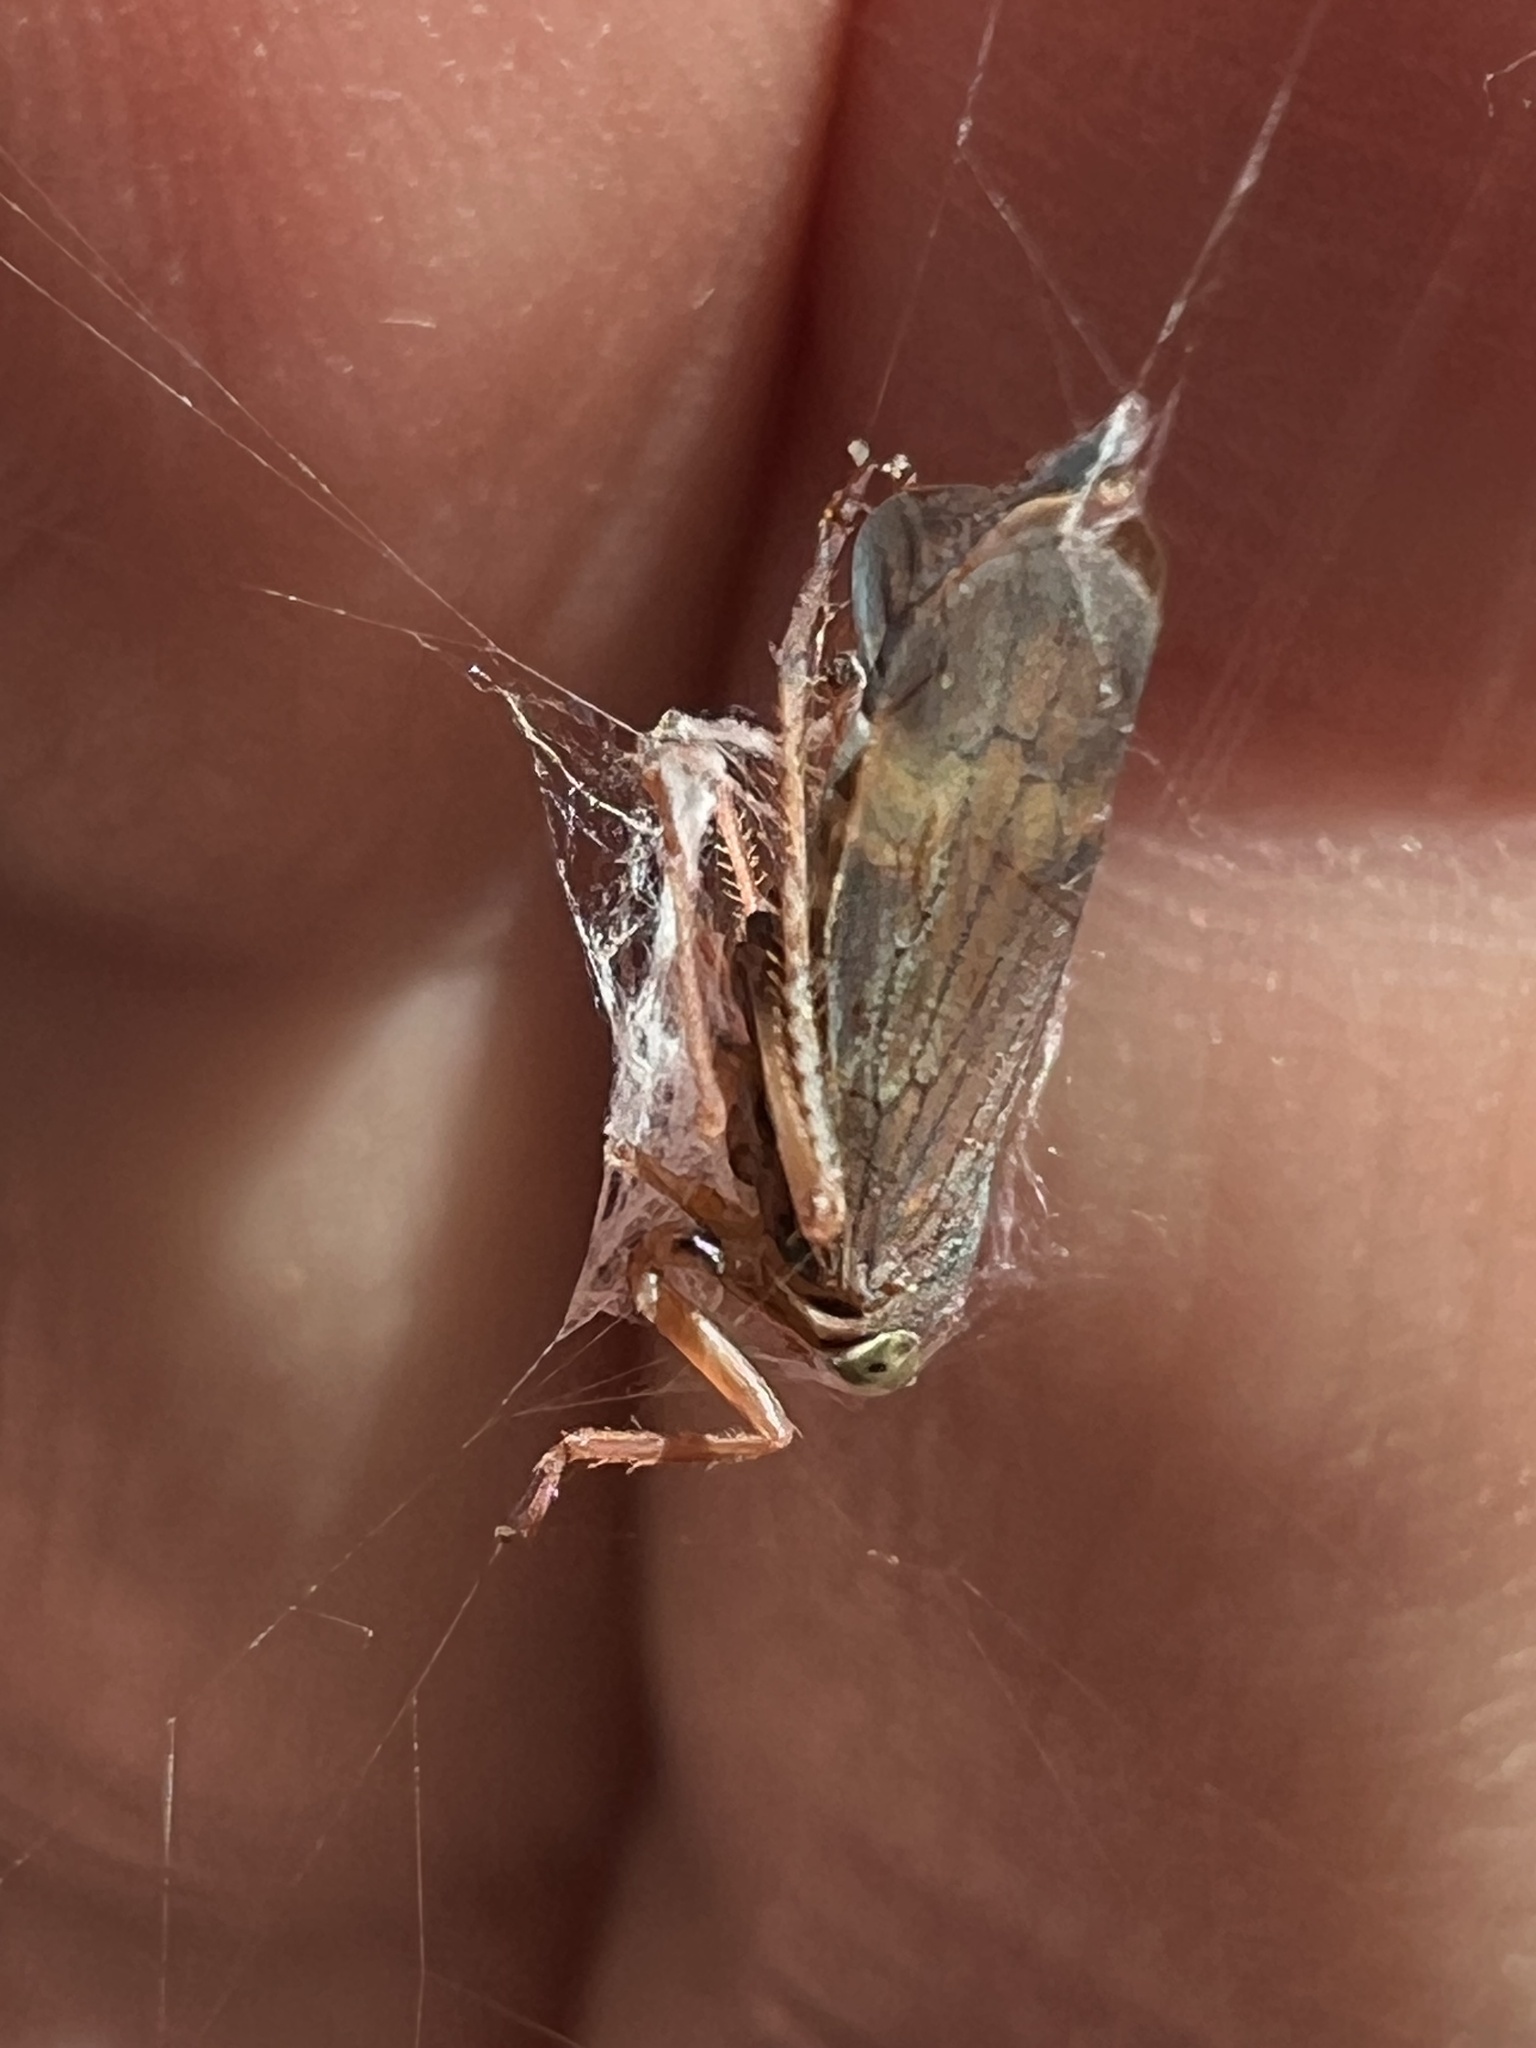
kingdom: Animalia
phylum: Arthropoda
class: Insecta
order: Hemiptera
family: Cicadellidae
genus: Jikradia
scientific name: Jikradia olitoria
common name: Coppery leafhopper
